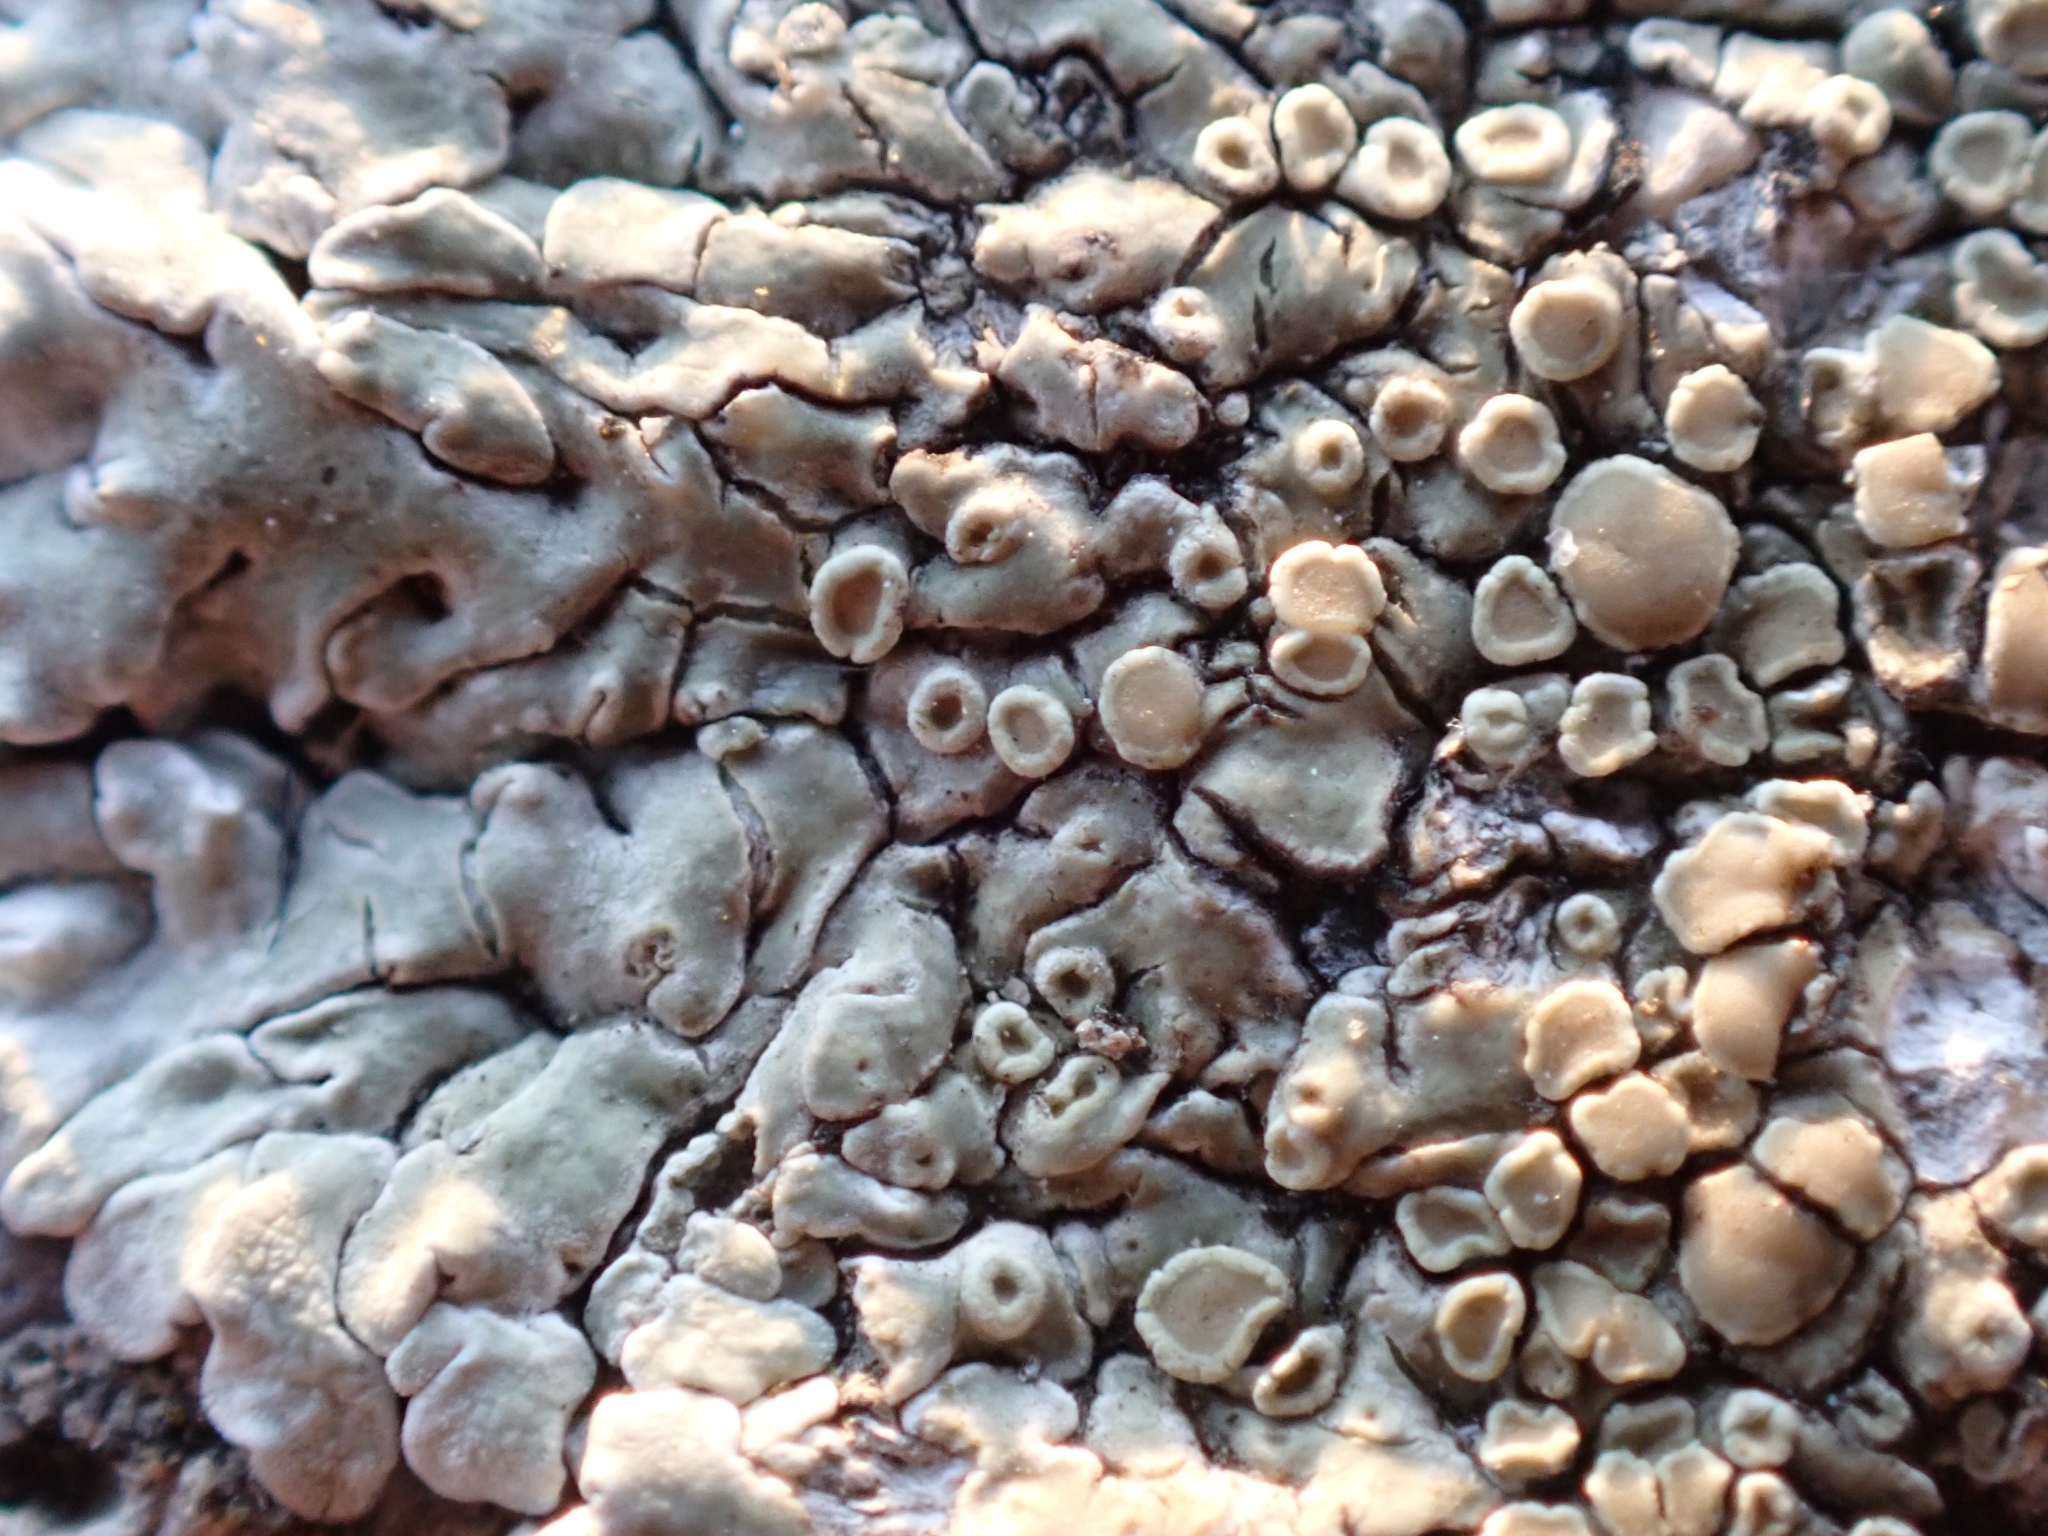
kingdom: Fungi
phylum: Ascomycota
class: Lecanoromycetes
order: Lecanorales
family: Lecanoraceae
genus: Protoparmeliopsis
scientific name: Protoparmeliopsis muralis
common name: Stonewall rim lichen
